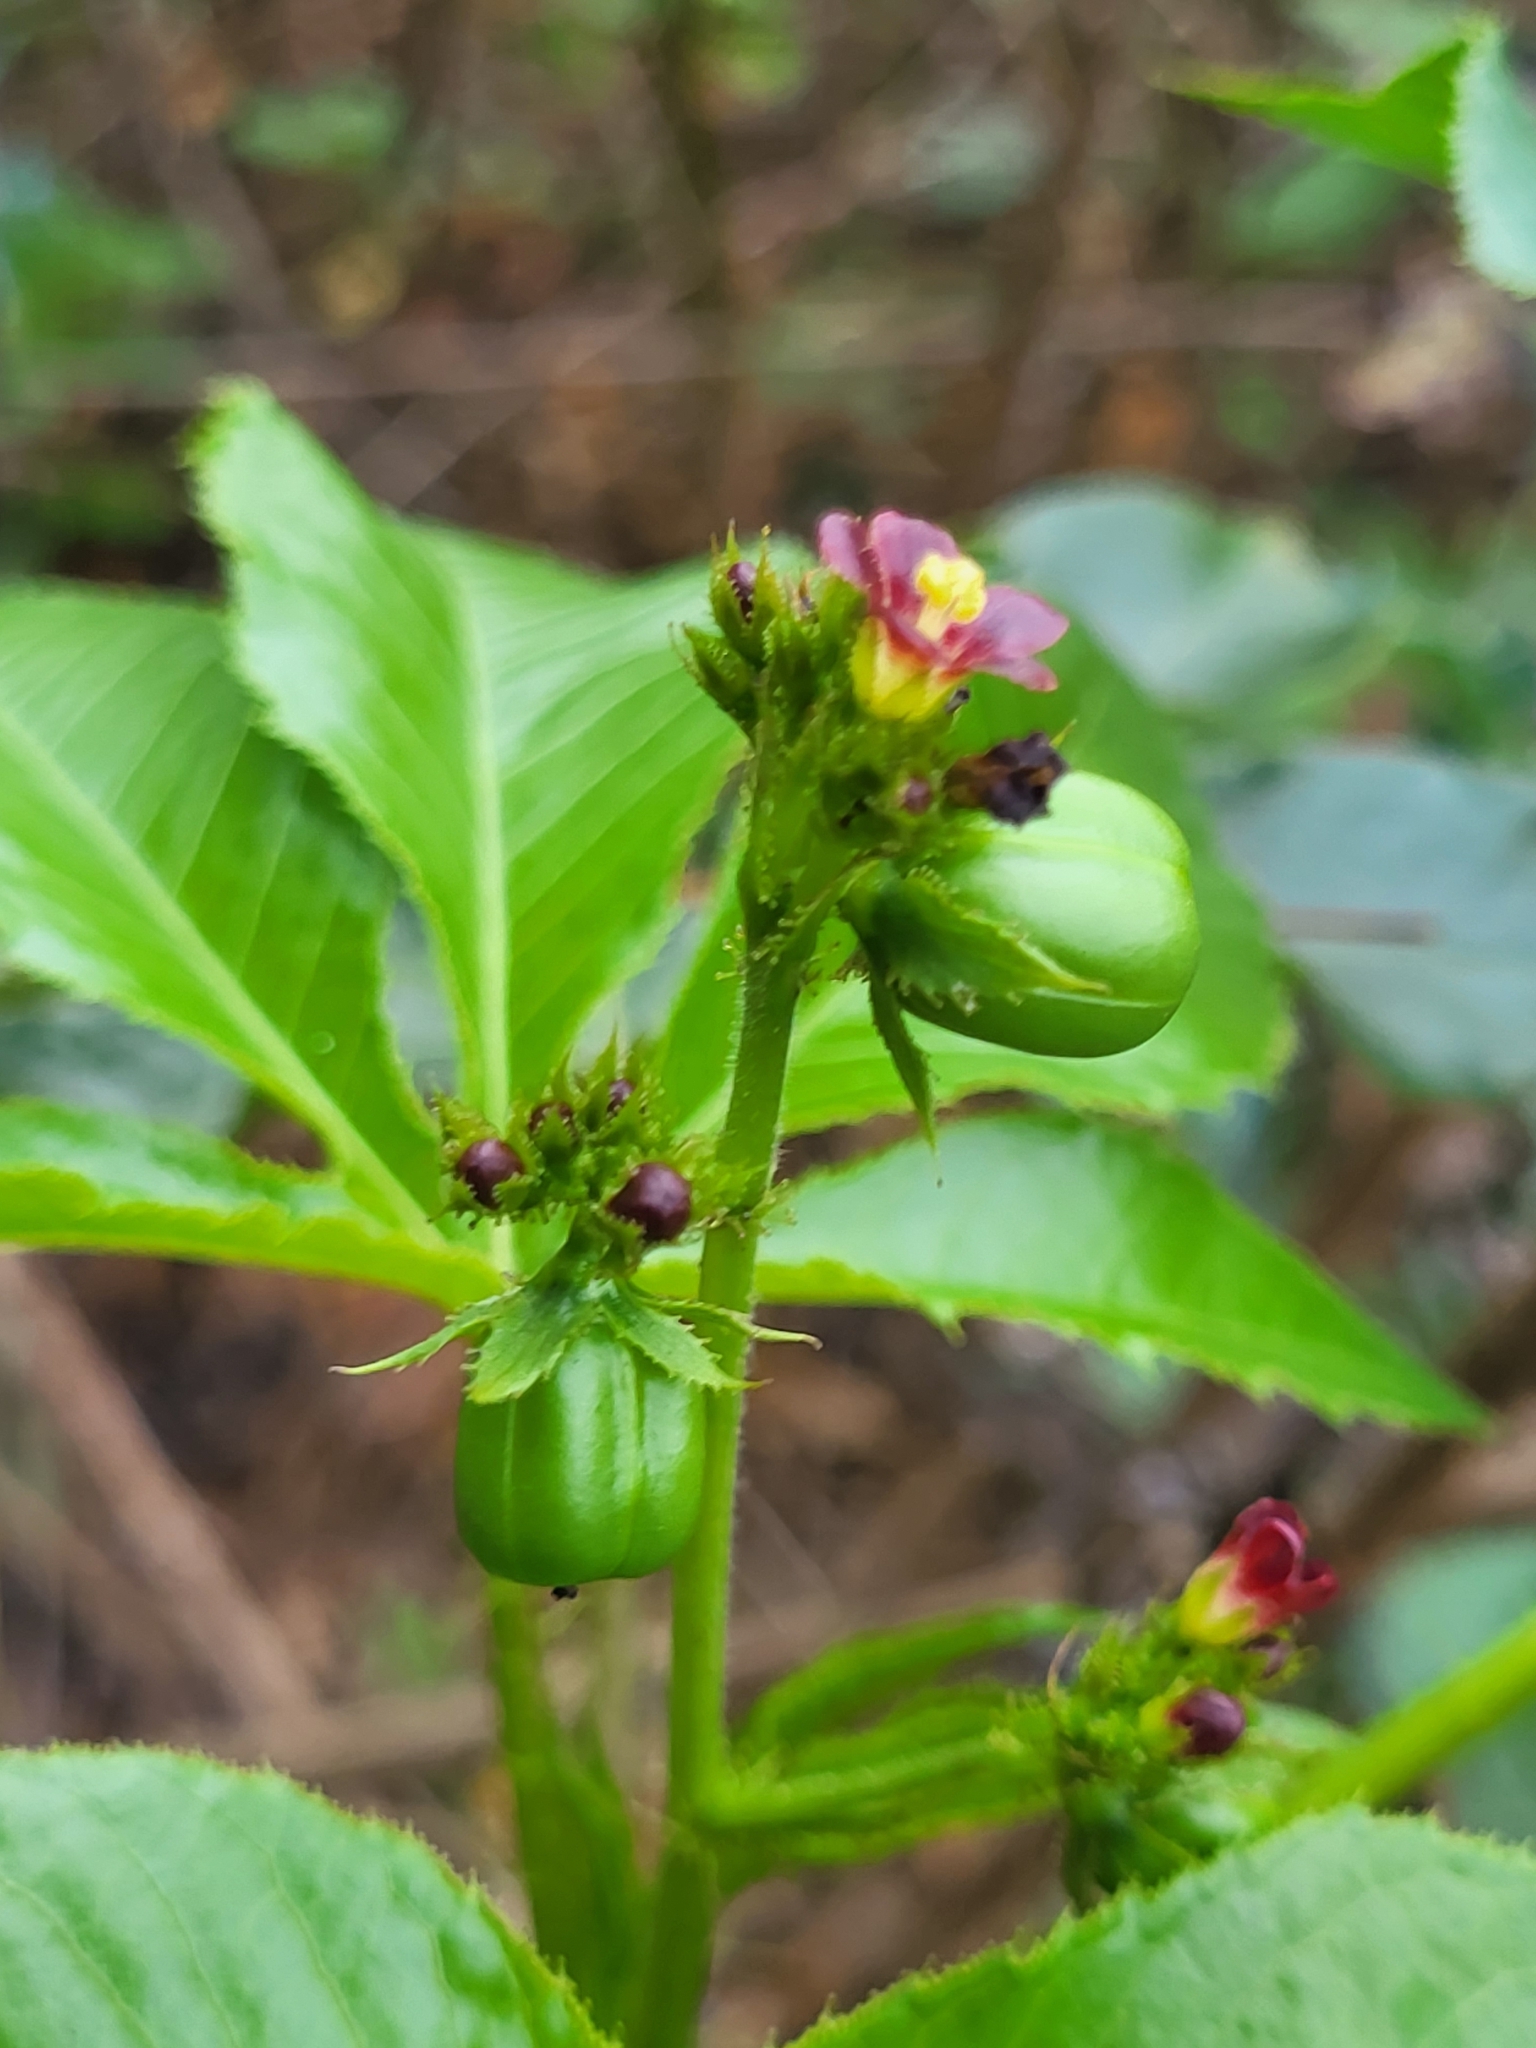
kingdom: Plantae
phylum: Tracheophyta
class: Magnoliopsida
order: Malpighiales
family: Euphorbiaceae
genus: Jatropha
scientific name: Jatropha gossypiifolia
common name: Bellyache bush
